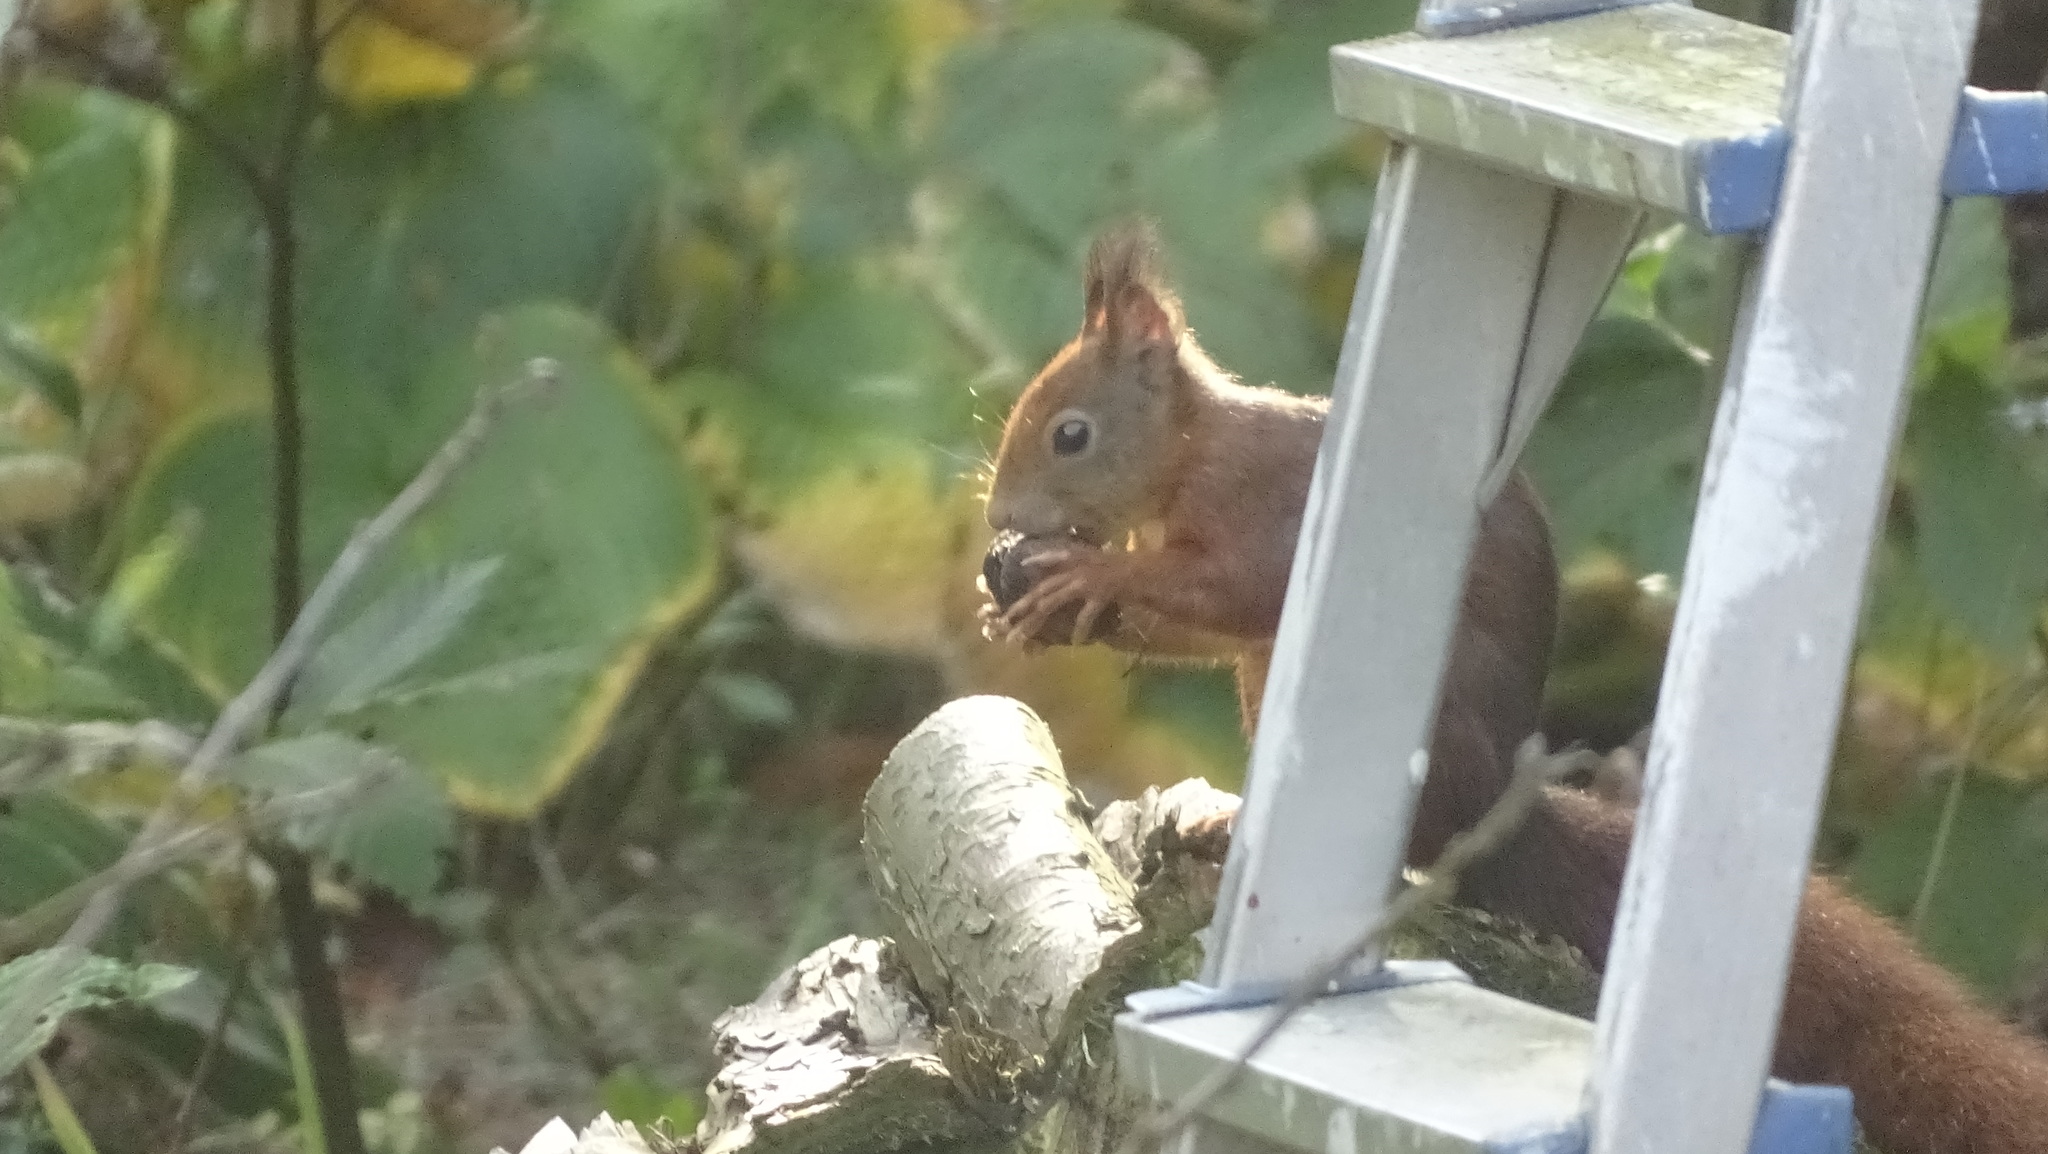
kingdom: Animalia
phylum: Chordata
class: Mammalia
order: Rodentia
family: Sciuridae
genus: Sciurus
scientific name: Sciurus vulgaris
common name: Eurasian red squirrel
